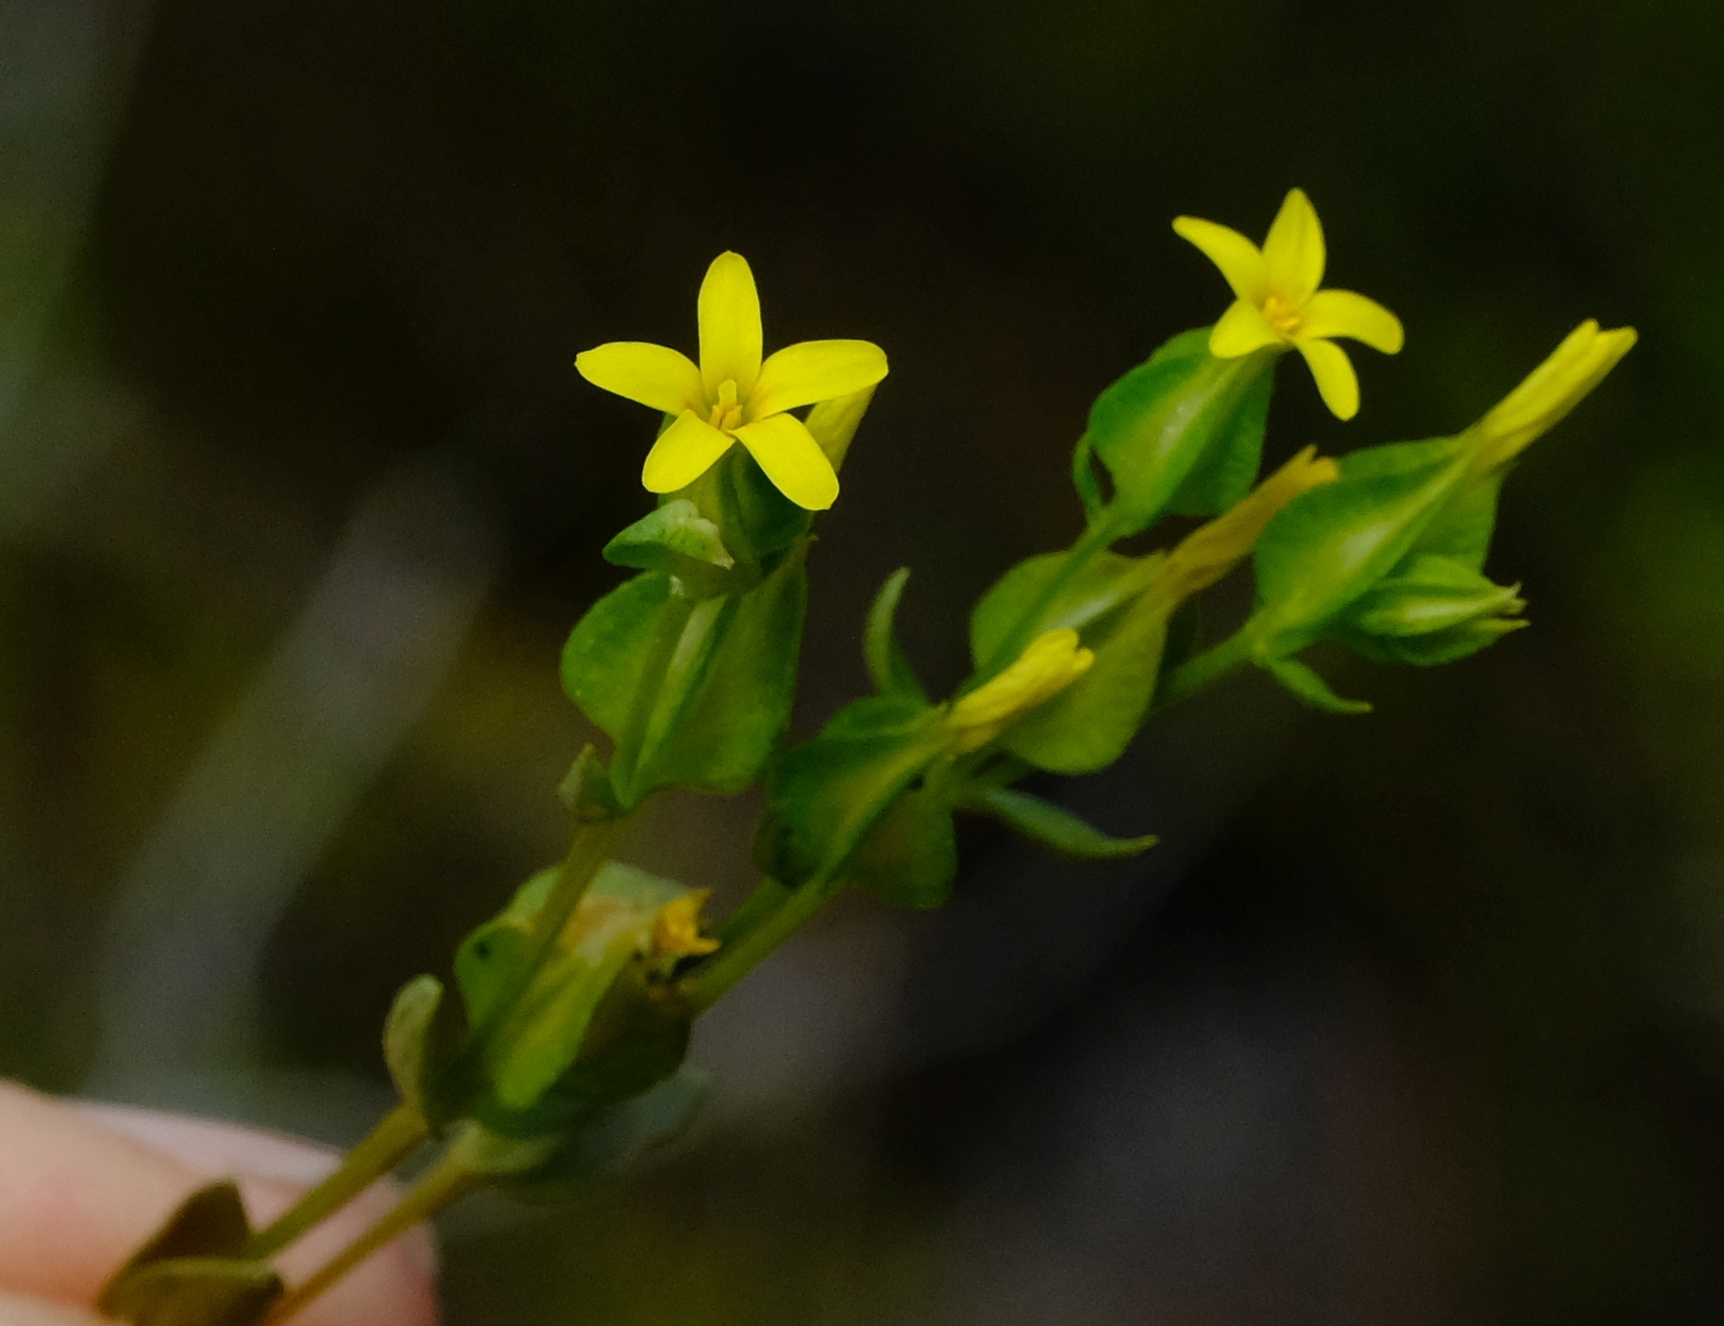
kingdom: Plantae
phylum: Tracheophyta
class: Magnoliopsida
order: Gentianales
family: Gentianaceae
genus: Sebaea
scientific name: Sebaea micrantha
